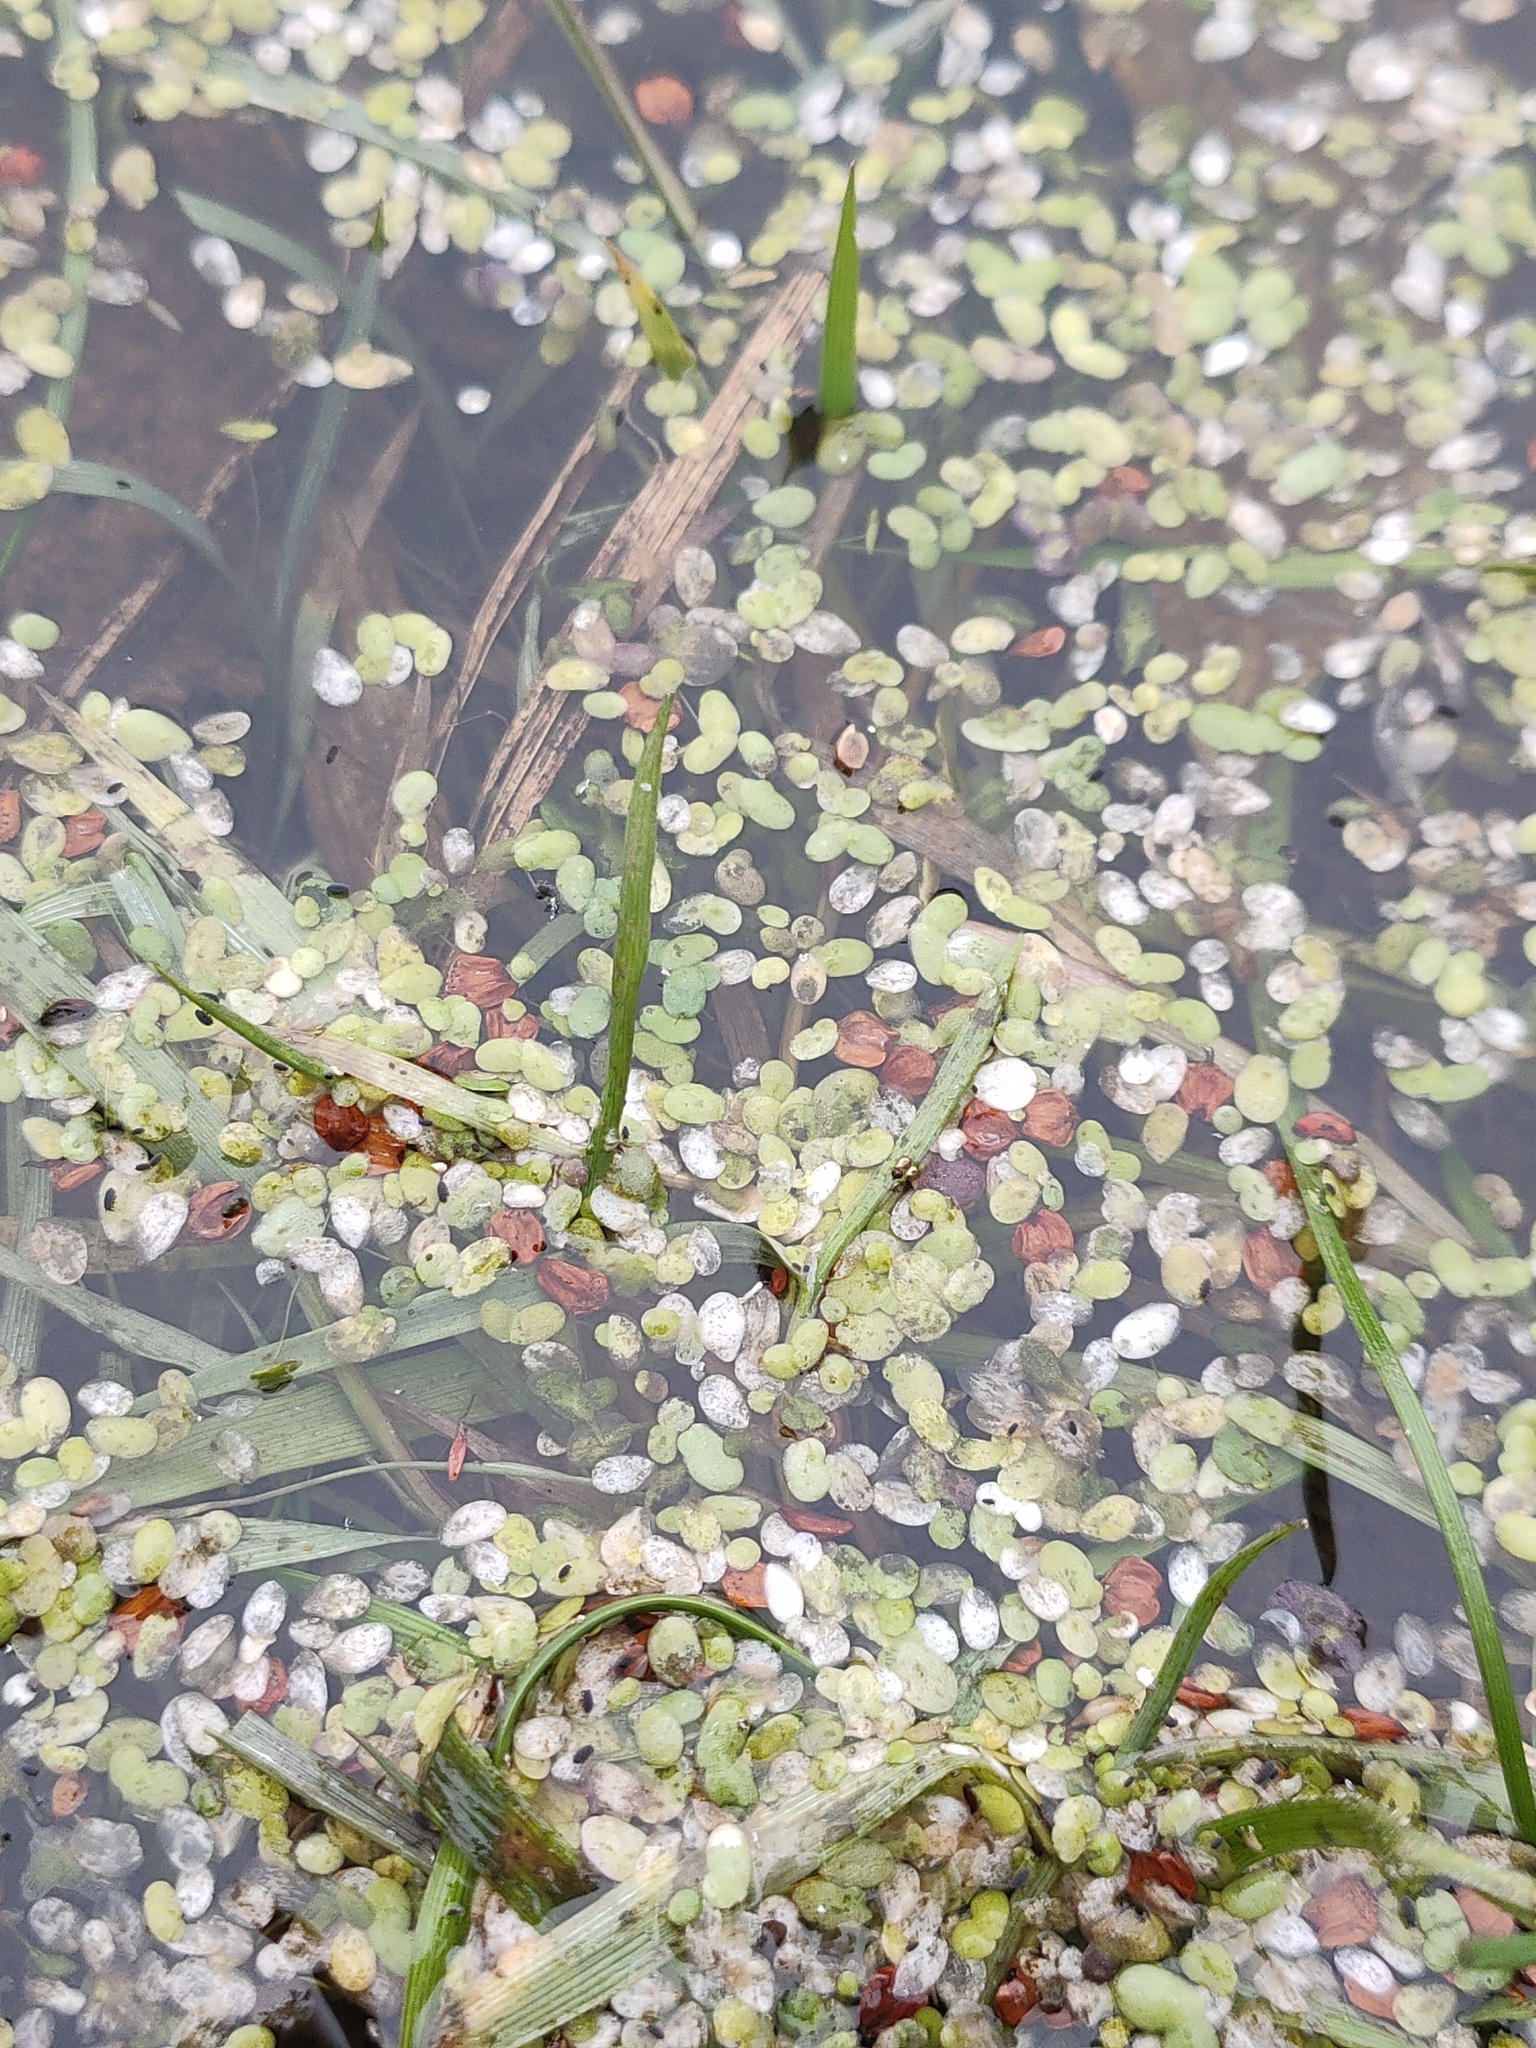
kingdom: Plantae
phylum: Tracheophyta
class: Liliopsida
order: Alismatales
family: Araceae
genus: Lemna
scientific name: Lemna minor
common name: Common duckweed
